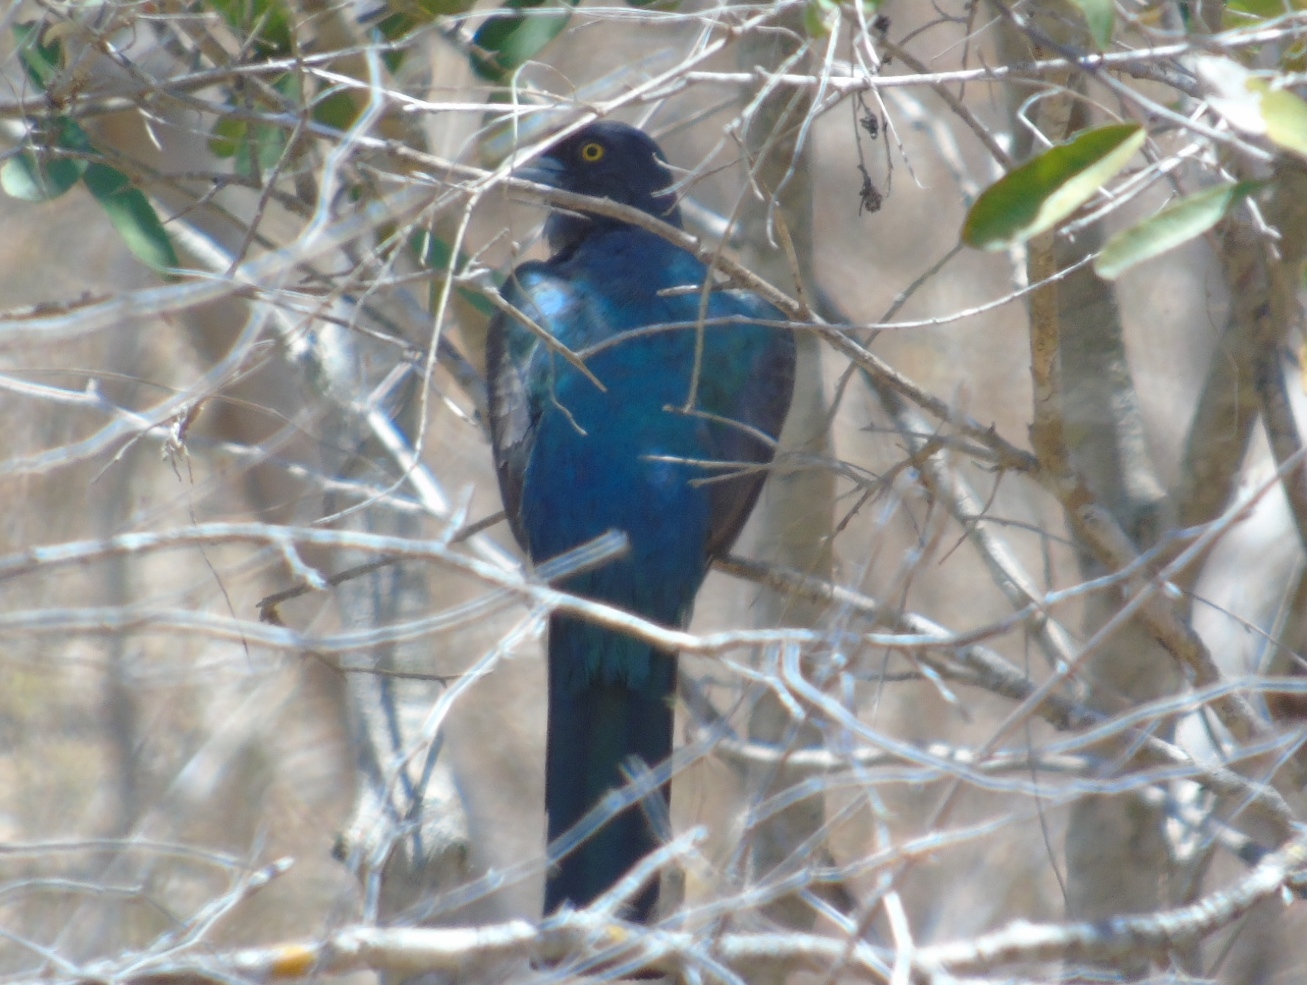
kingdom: Animalia
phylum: Chordata
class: Aves
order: Trogoniformes
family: Trogonidae
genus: Trogon
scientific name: Trogon citreolus
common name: Citreoline trogon
